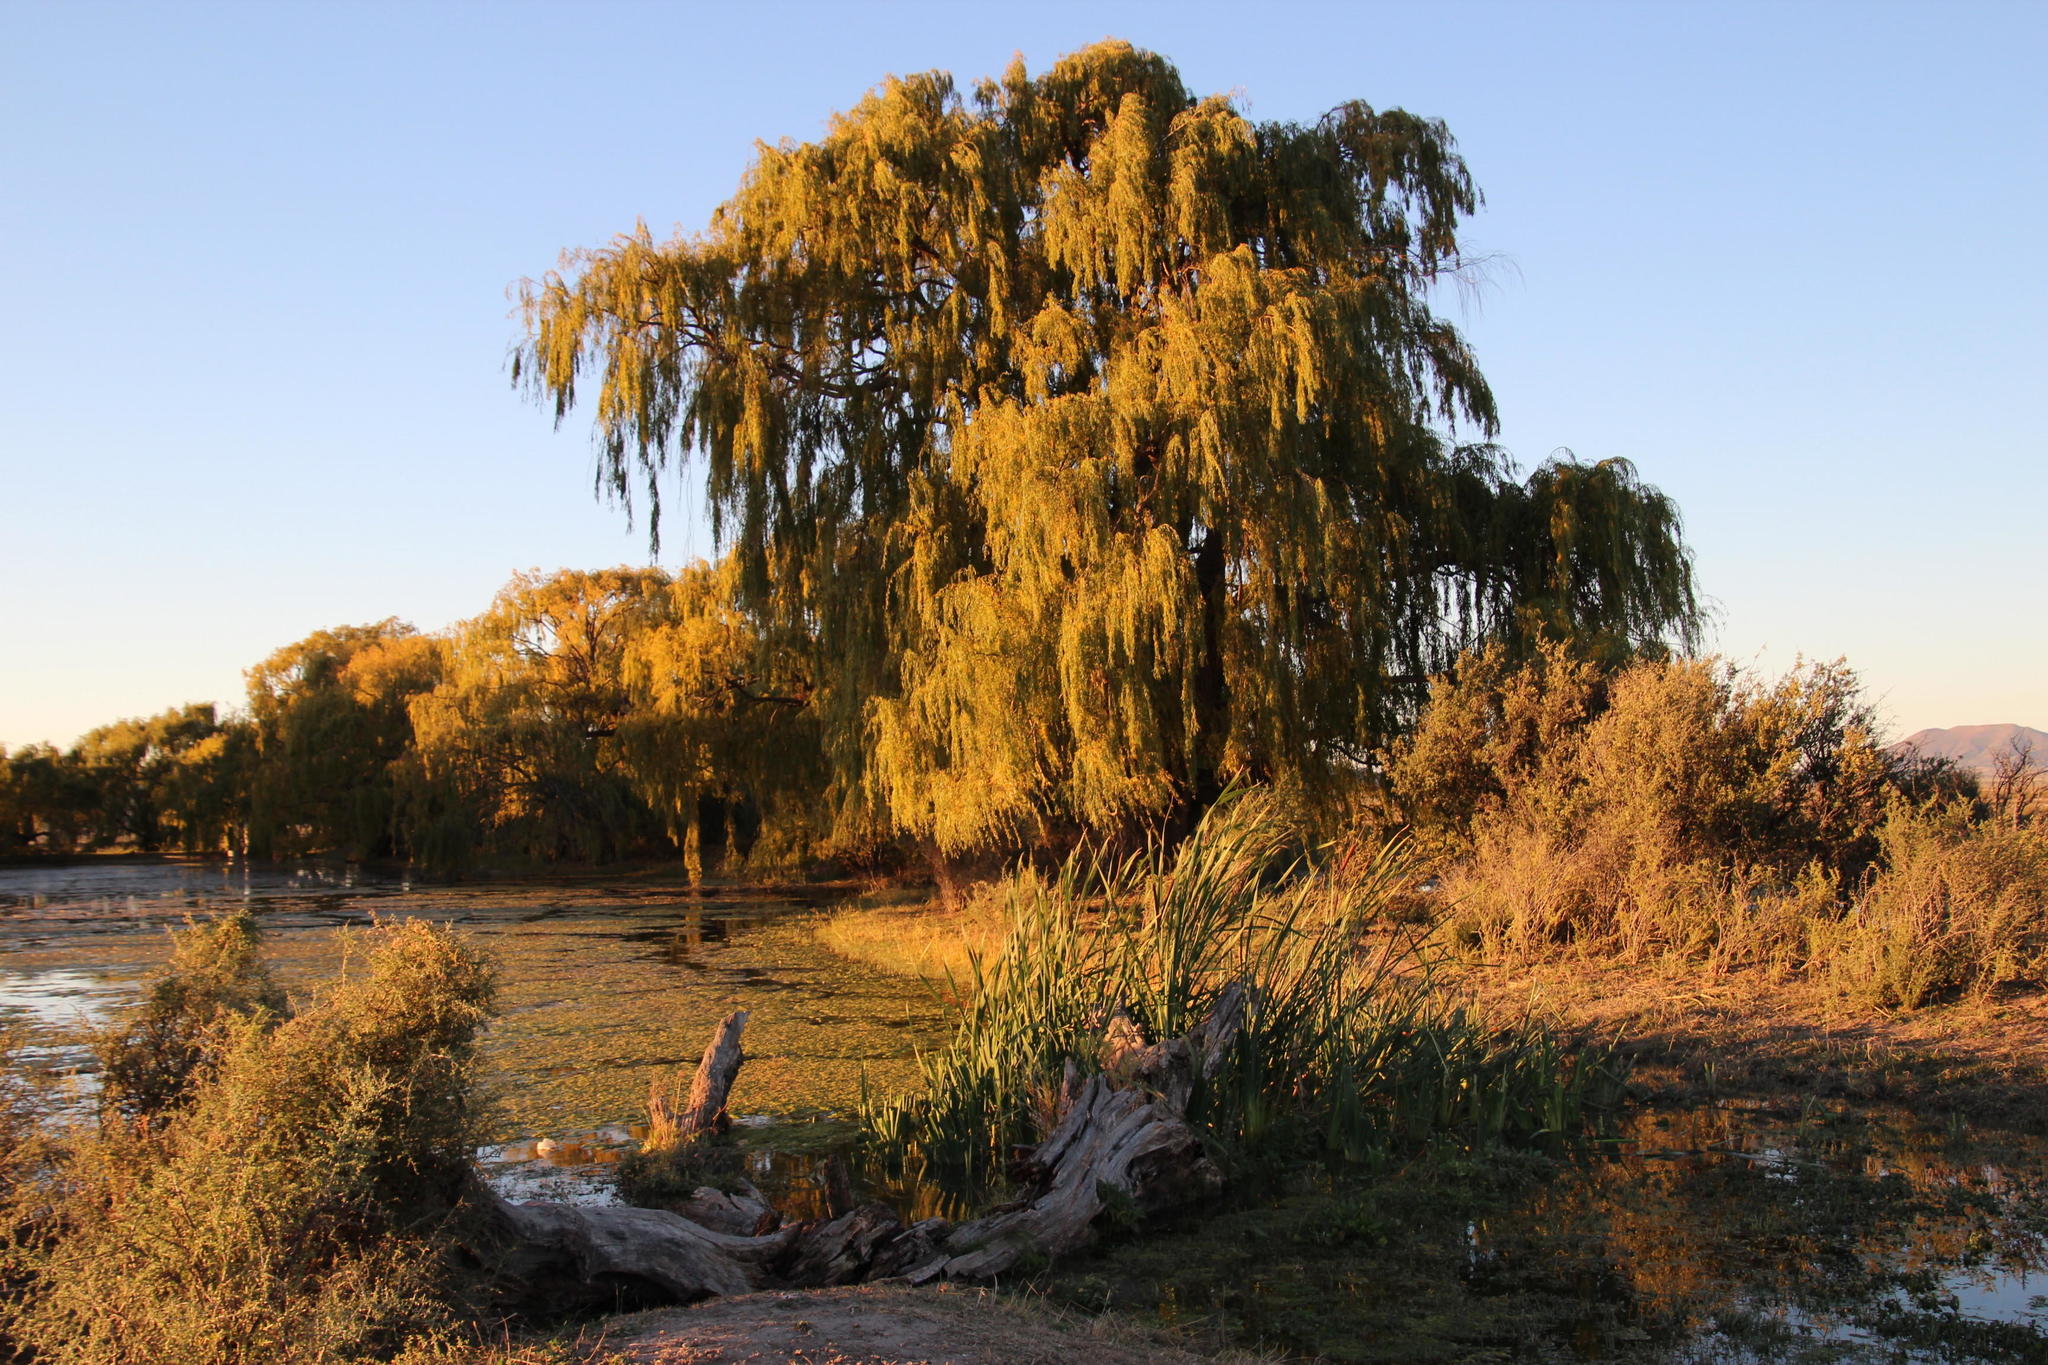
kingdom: Plantae
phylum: Tracheophyta
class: Magnoliopsida
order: Malpighiales
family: Salicaceae
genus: Salix
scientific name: Salix babylonica
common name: Weeping willow
